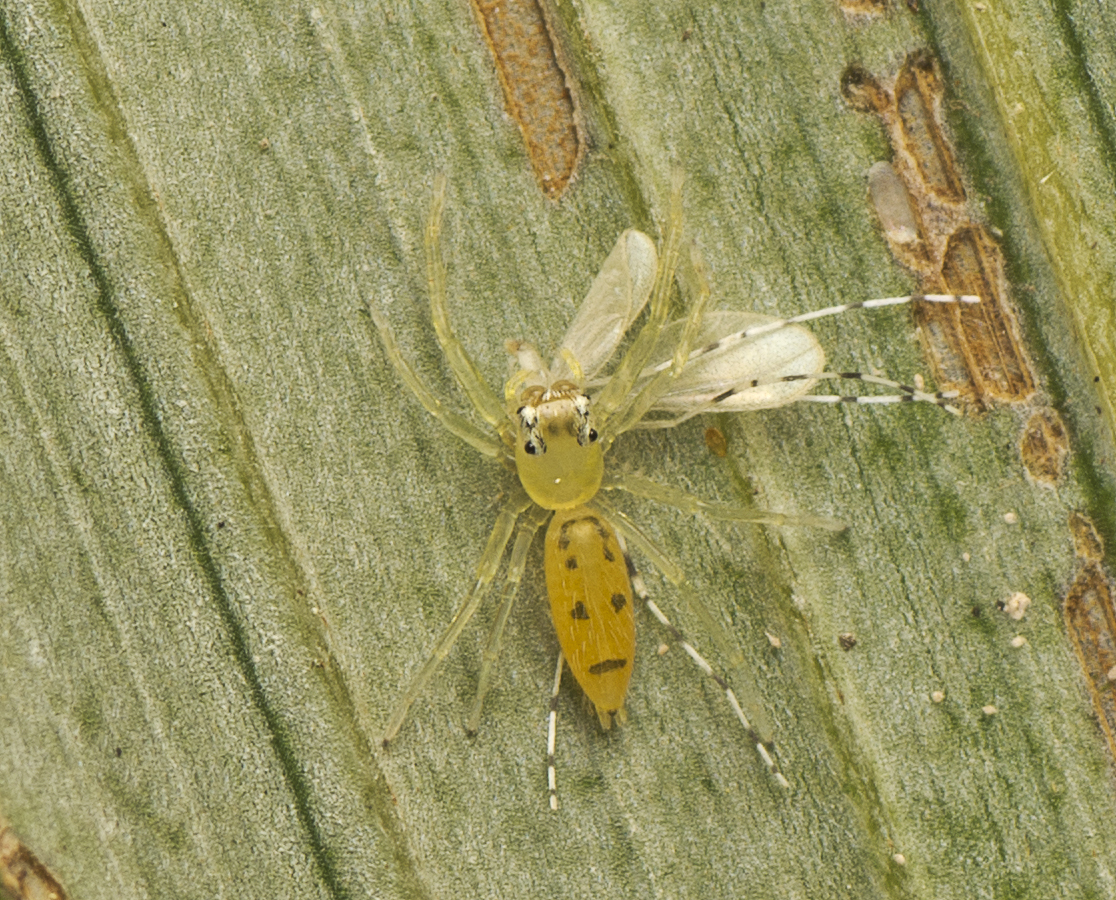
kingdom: Animalia
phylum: Arthropoda
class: Arachnida
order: Araneae
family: Salticidae
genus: Astilodes
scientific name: Astilodes mariae
